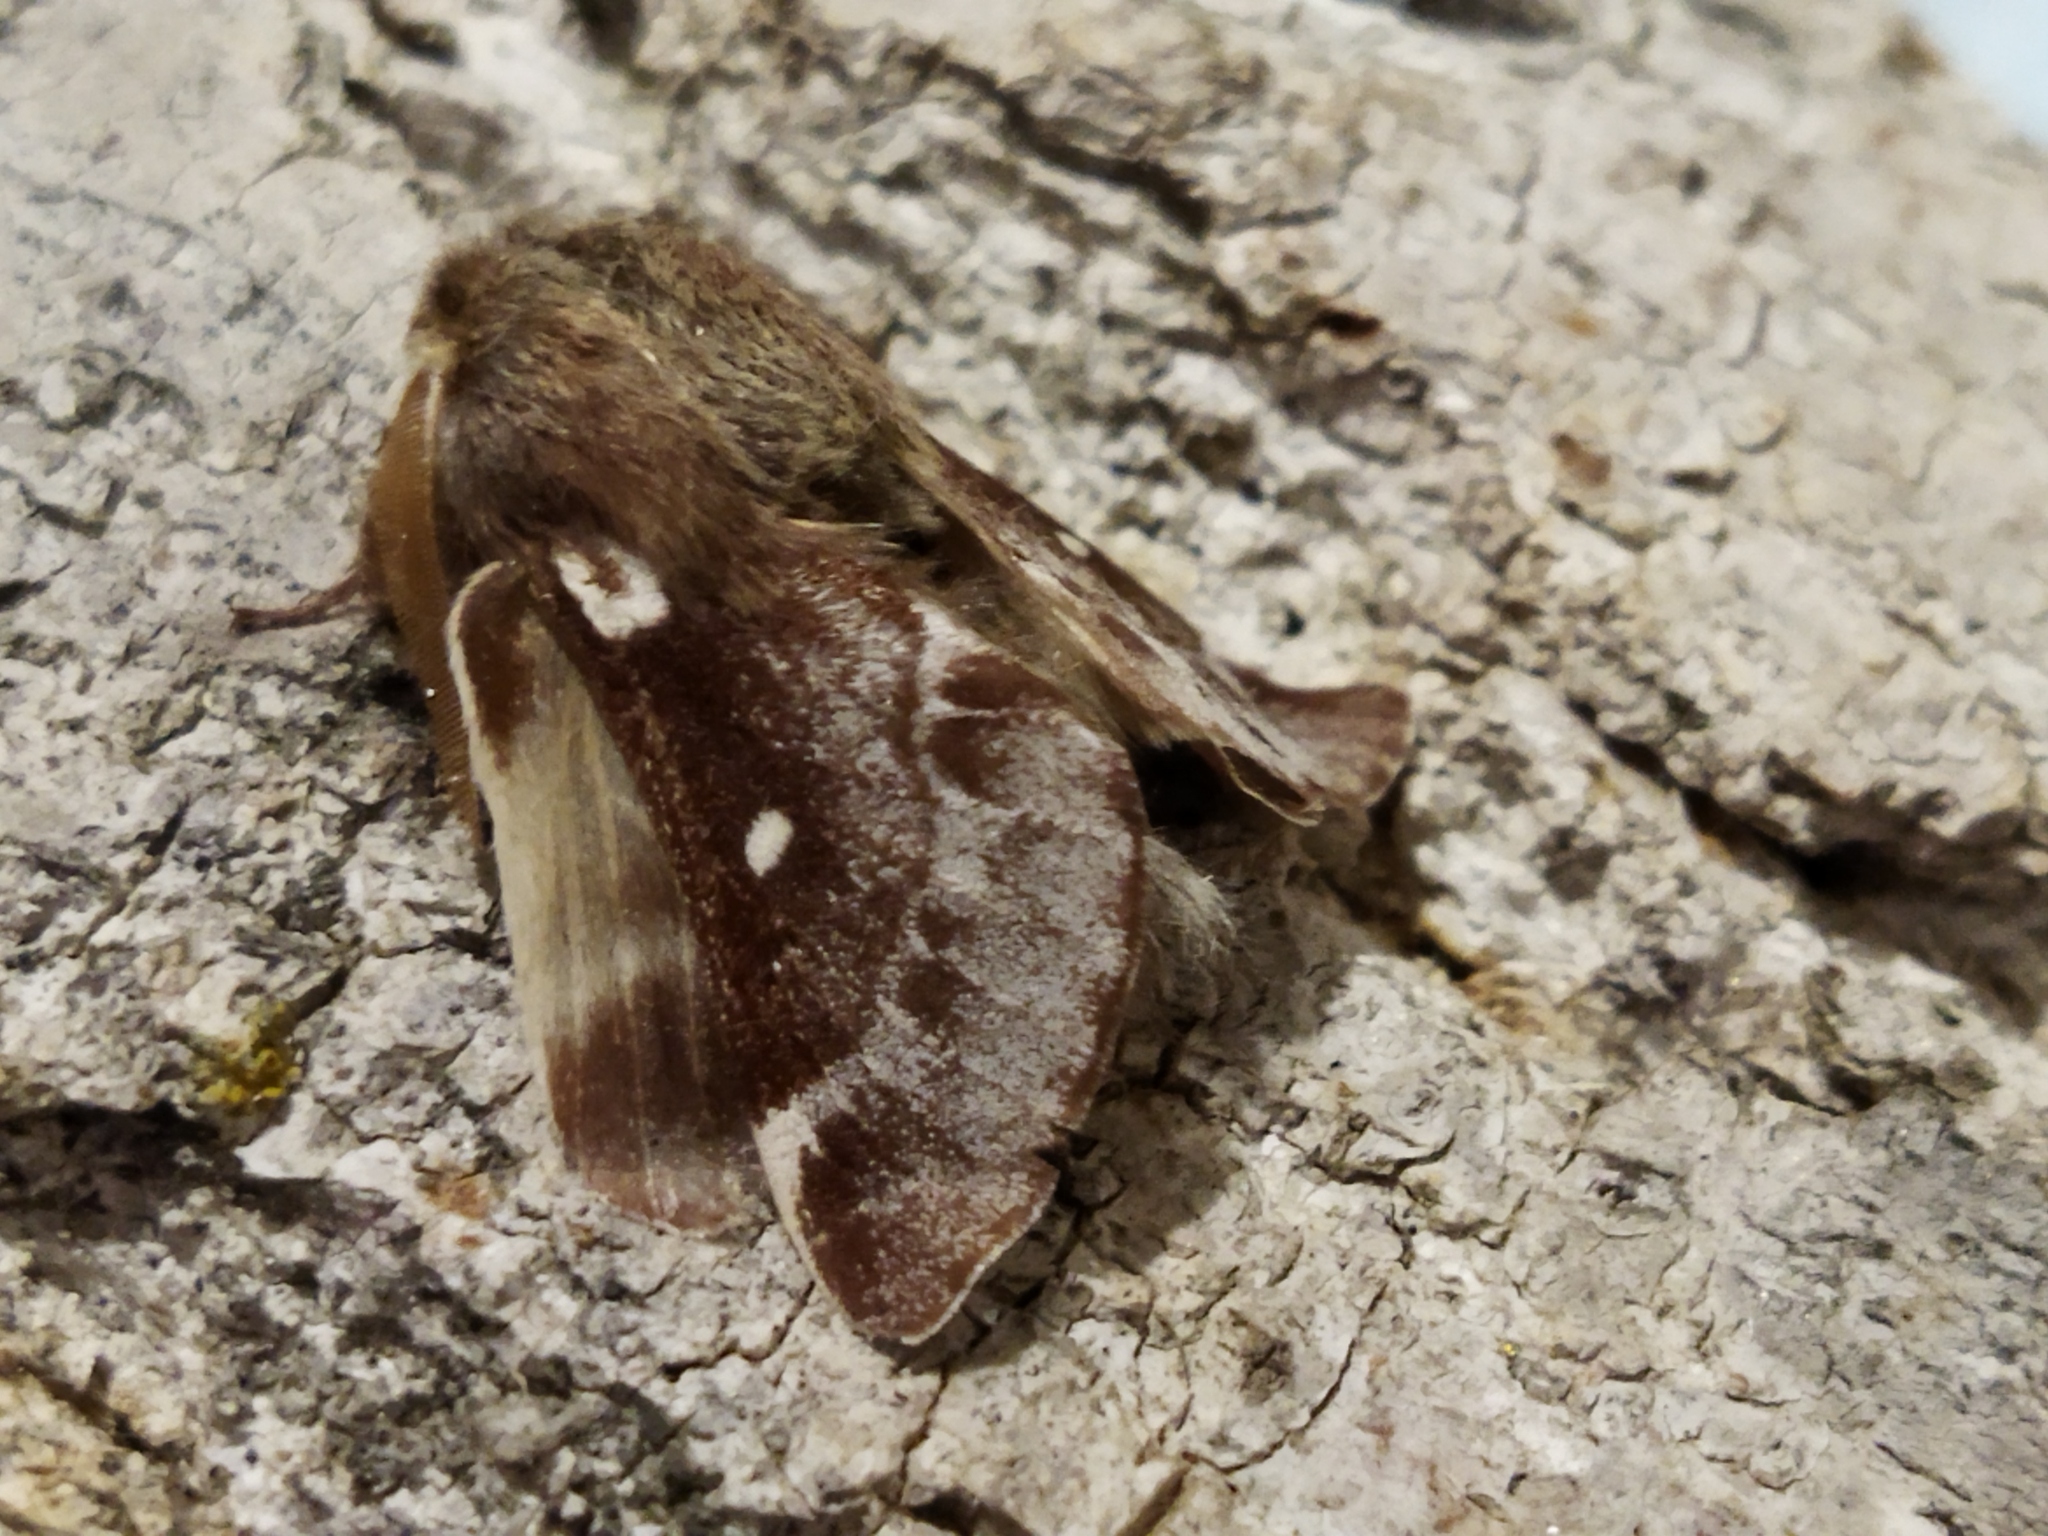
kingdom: Animalia
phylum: Arthropoda
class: Insecta
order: Lepidoptera
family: Lasiocampidae
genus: Eriogaster
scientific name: Eriogaster lanestris
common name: Small eggar
